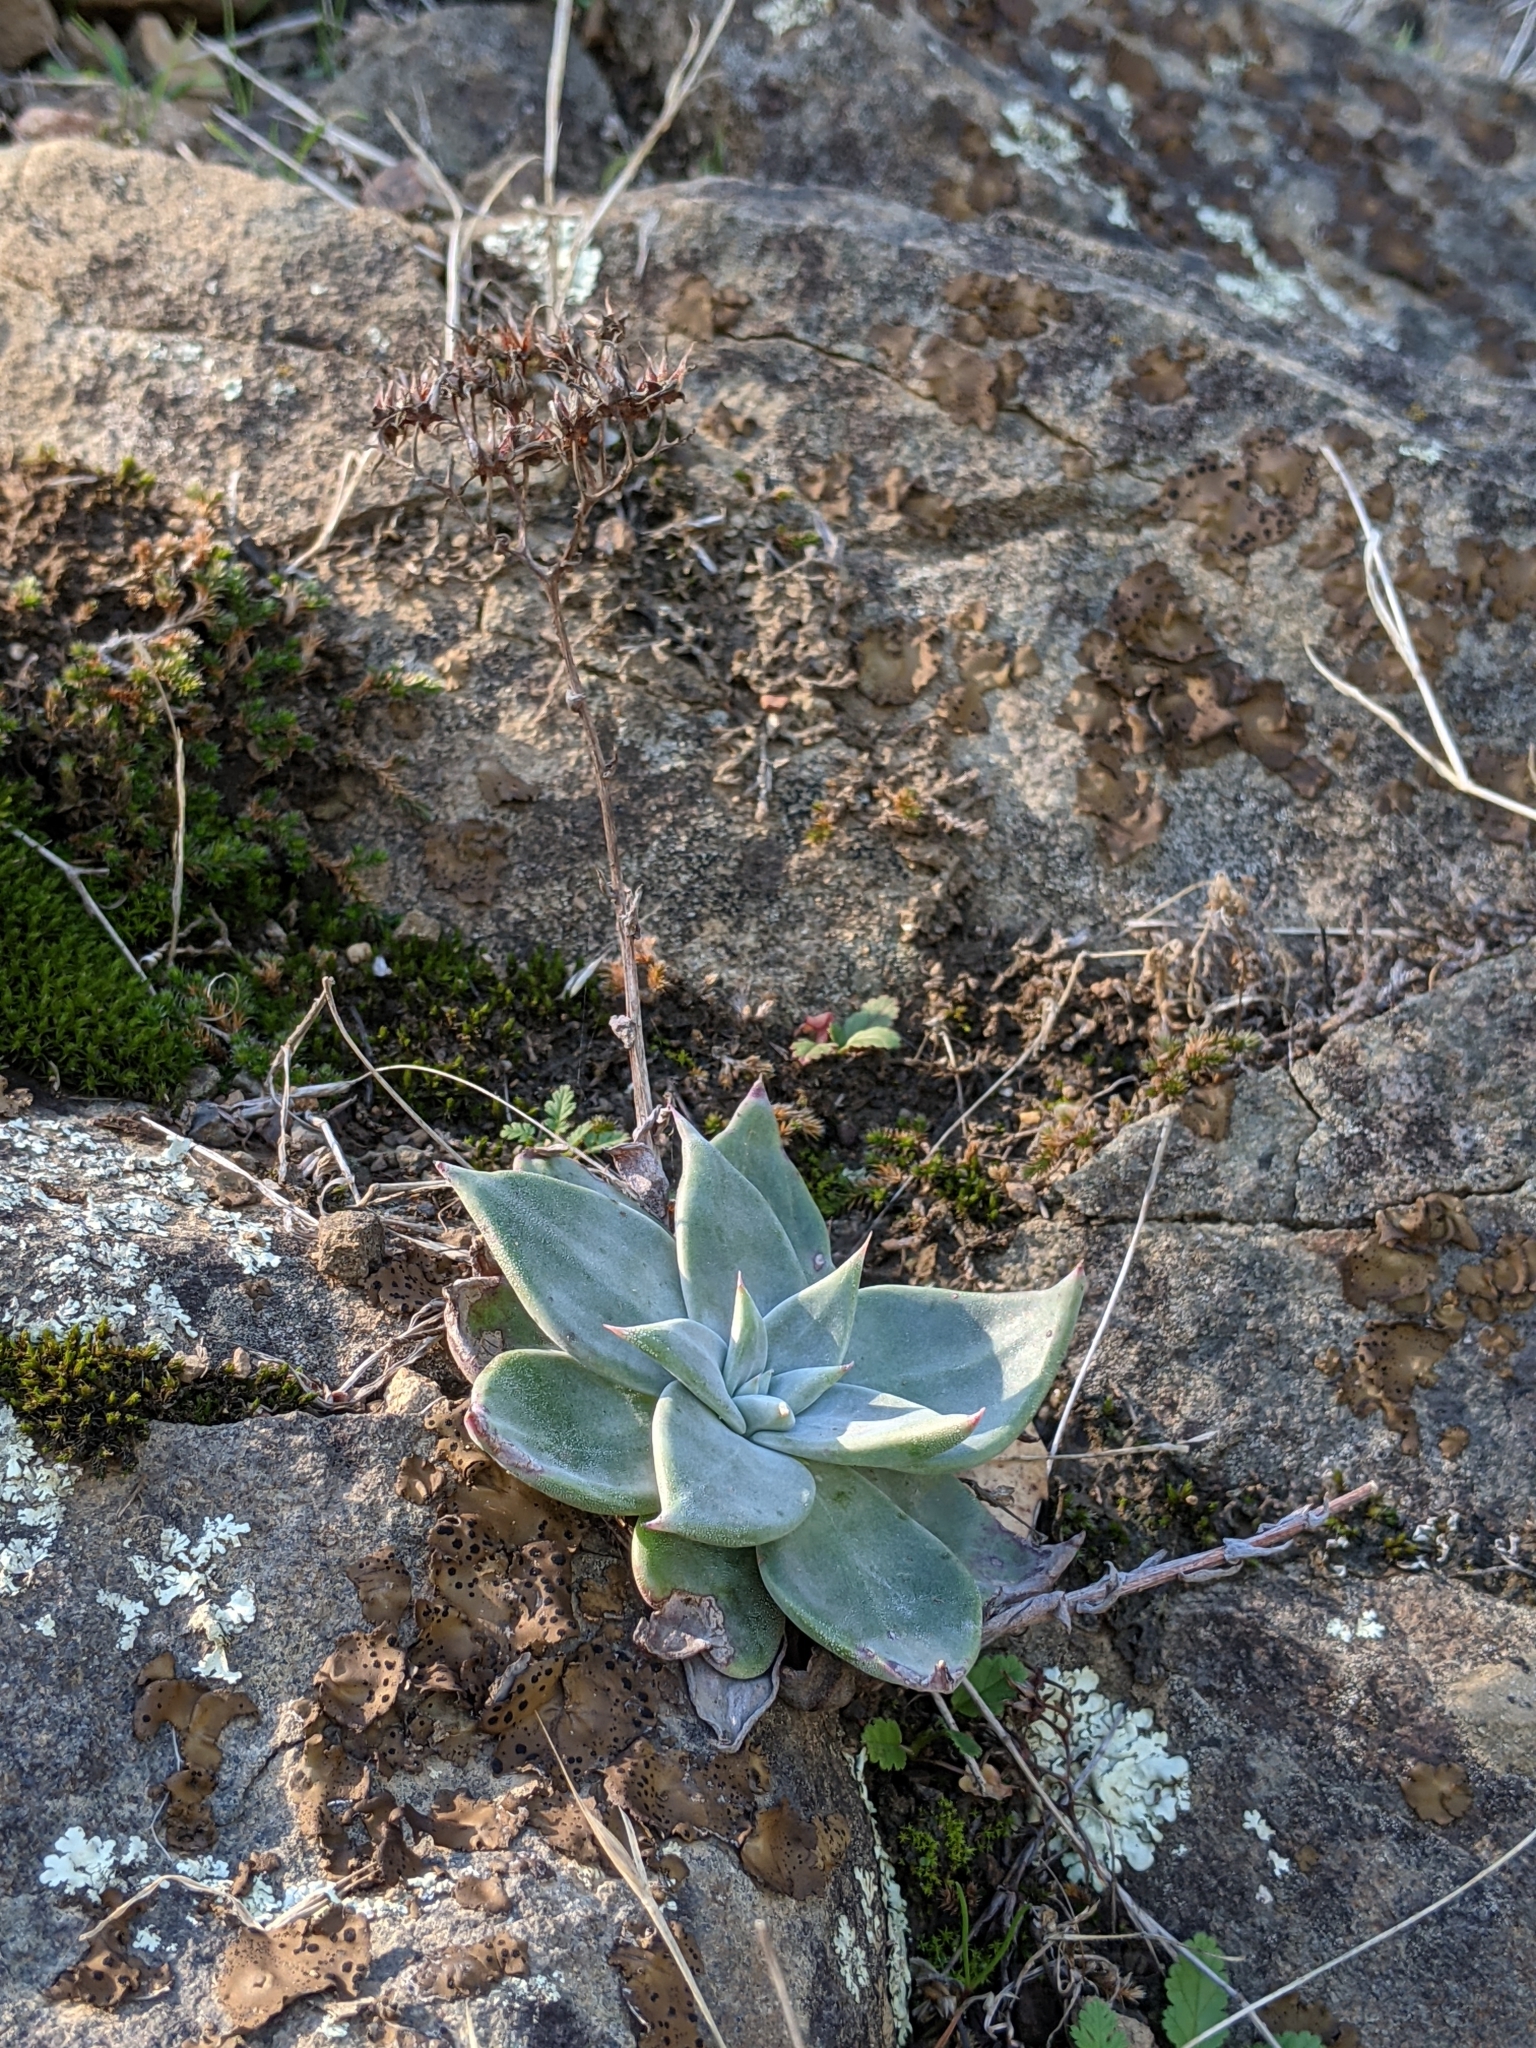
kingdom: Plantae
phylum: Tracheophyta
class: Magnoliopsida
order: Saxifragales
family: Crassulaceae
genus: Dudleya
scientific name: Dudleya cymosa
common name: Canyon dudleya
